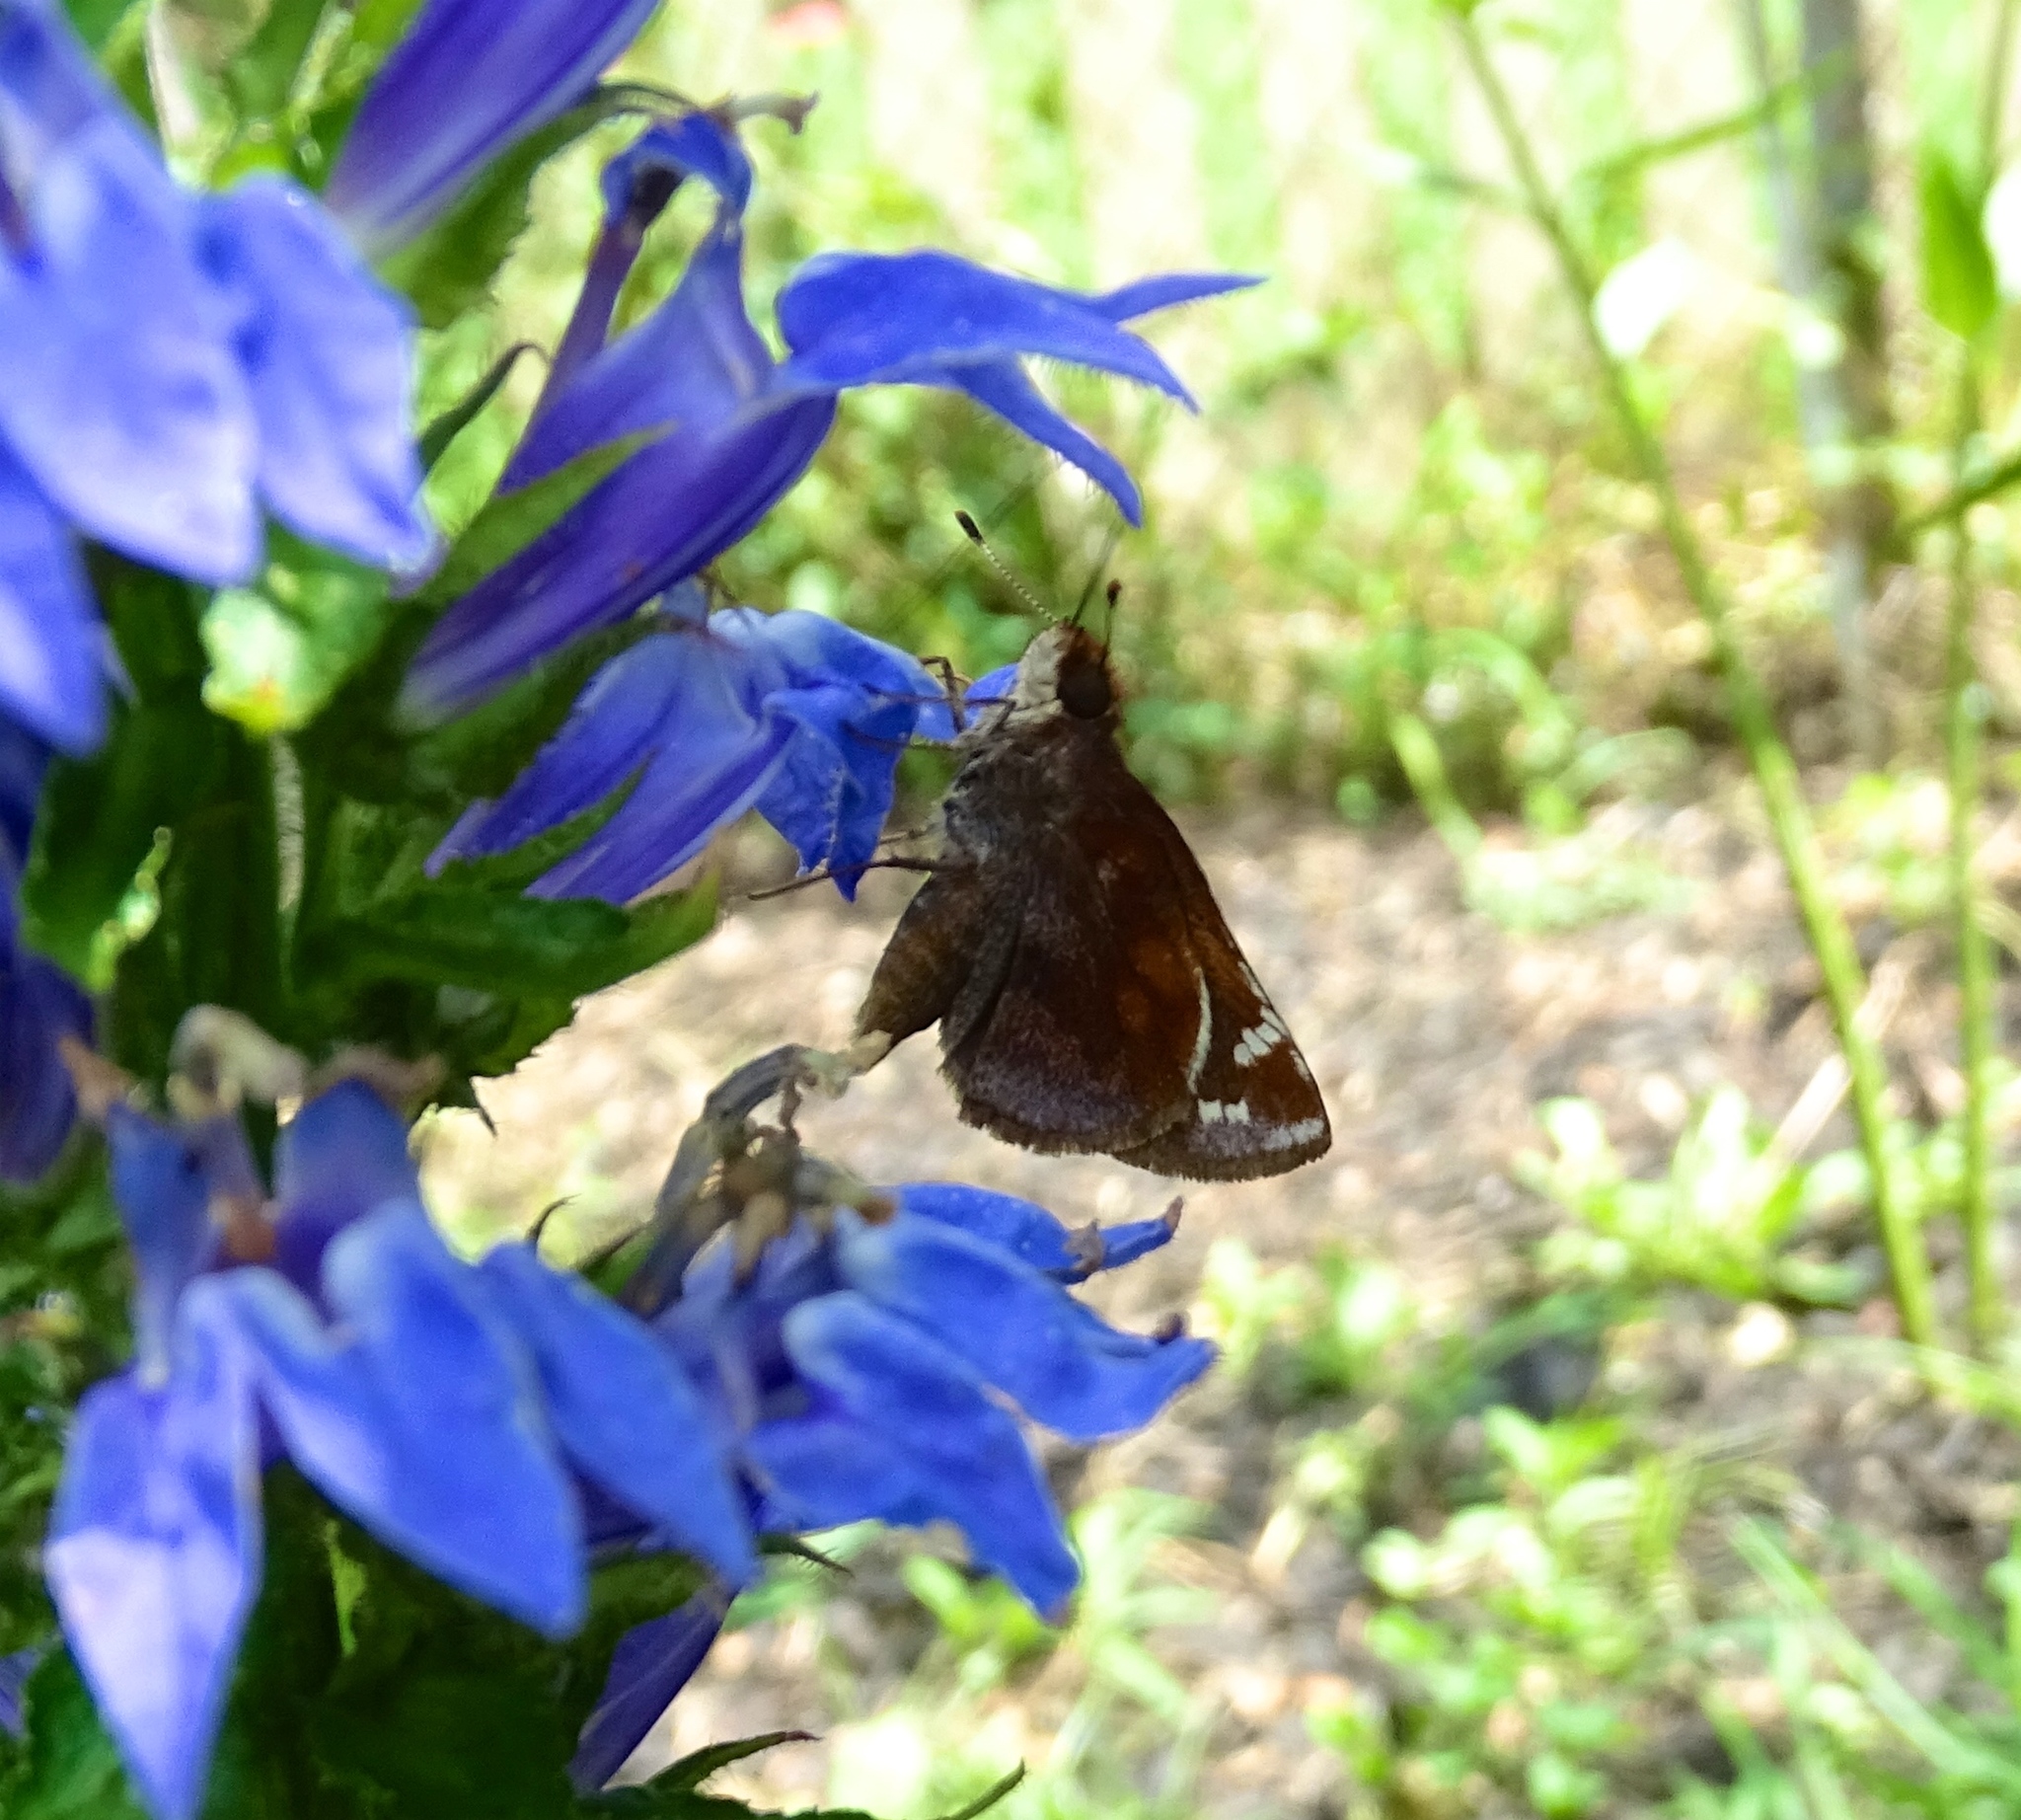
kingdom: Animalia
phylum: Arthropoda
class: Insecta
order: Lepidoptera
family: Hesperiidae
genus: Lon
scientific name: Lon zabulon
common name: Zabulon skipper
